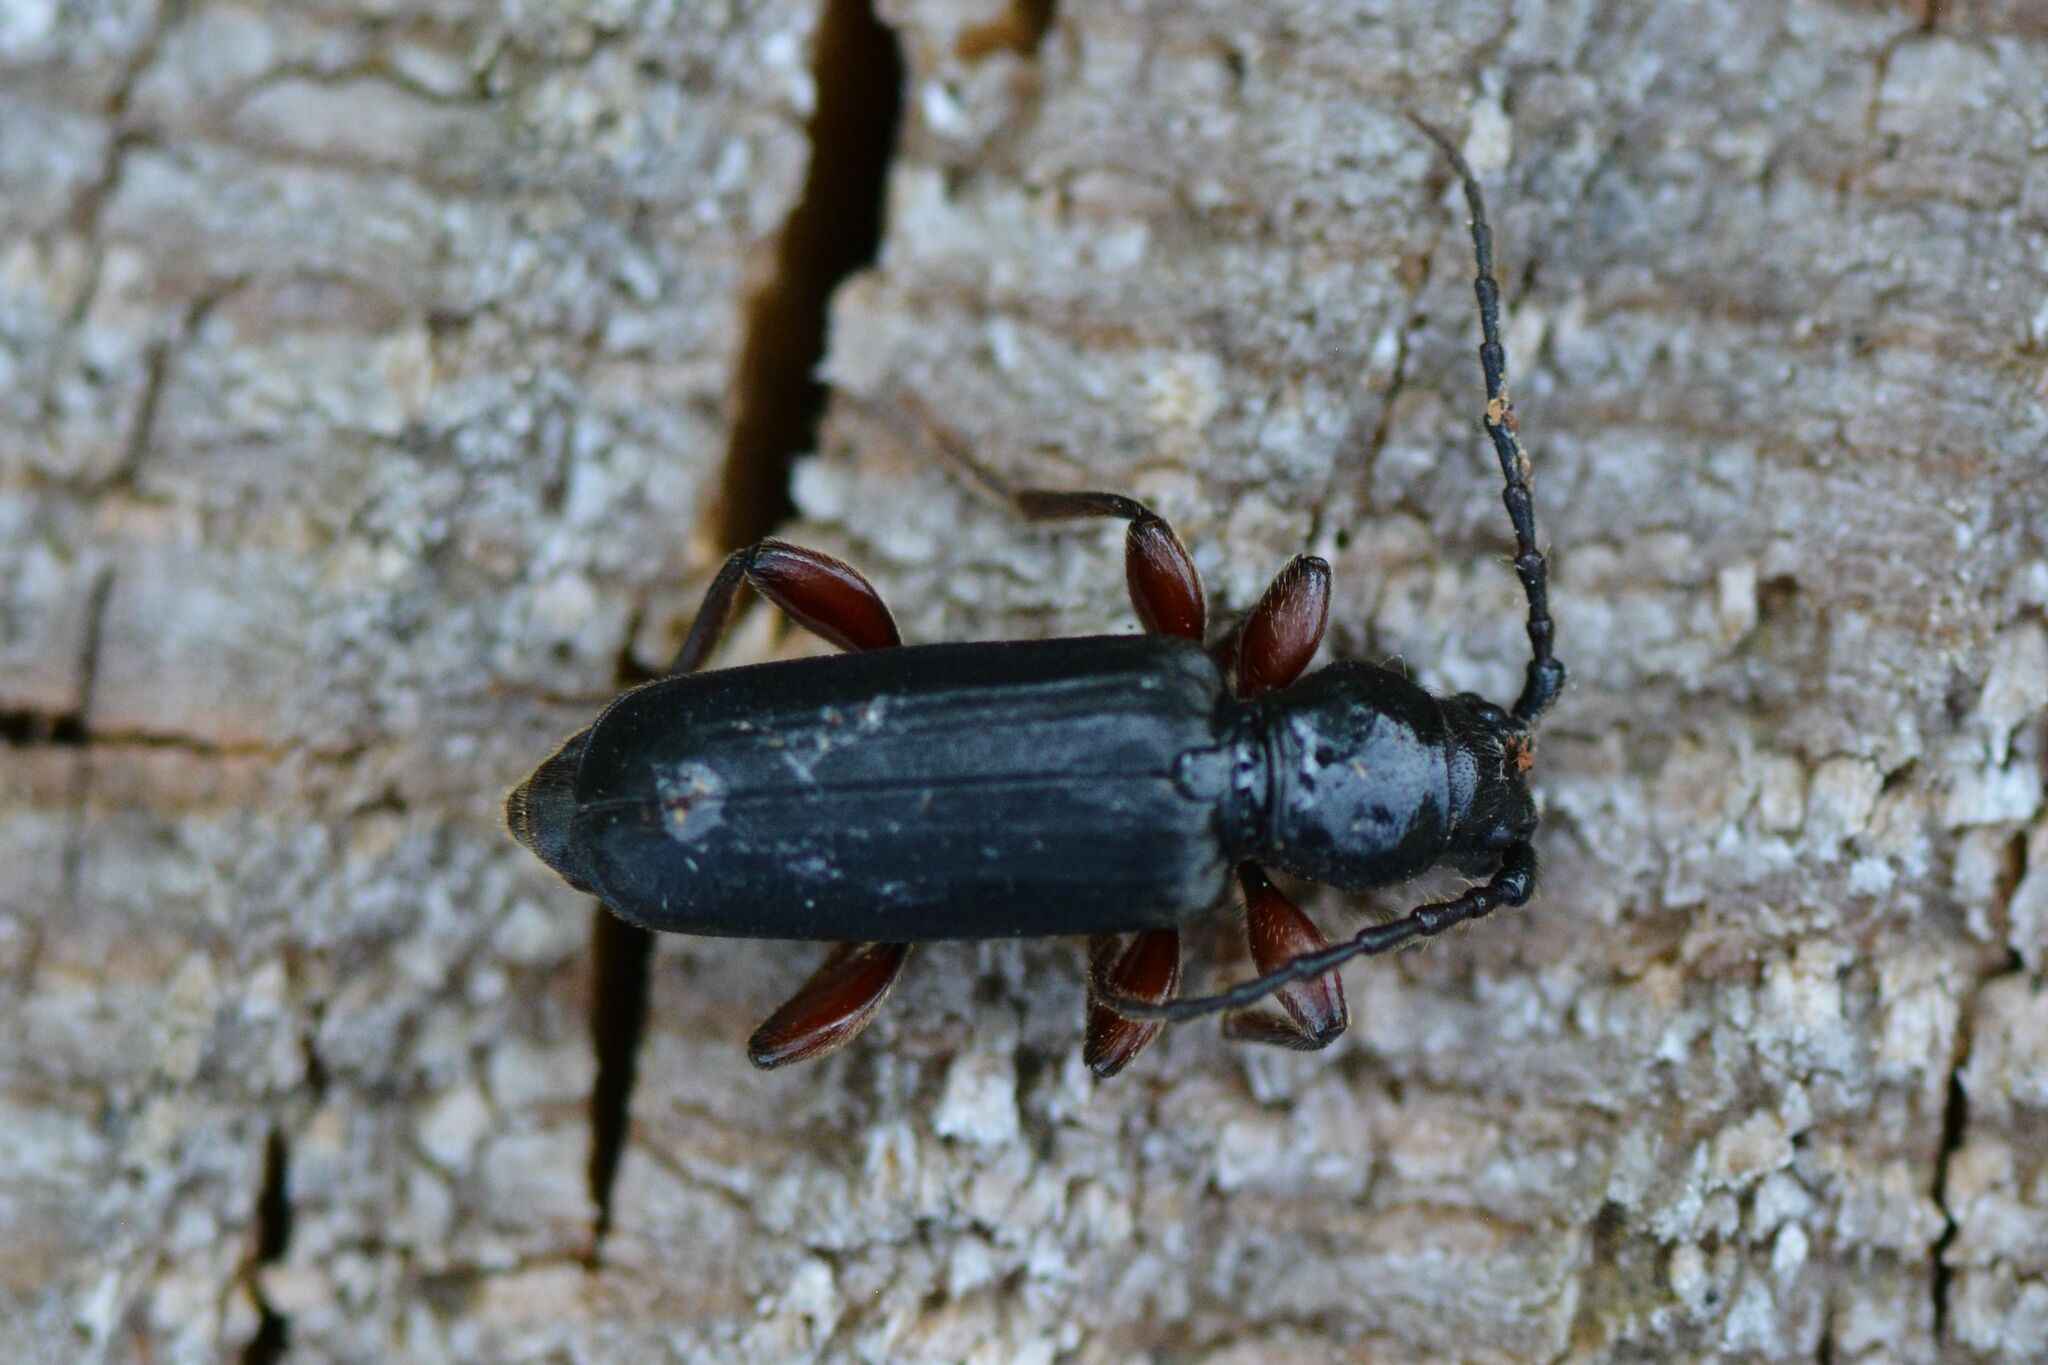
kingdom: Animalia
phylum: Arthropoda
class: Insecta
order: Coleoptera
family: Cerambycidae
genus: Tetropium
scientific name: Tetropium castaneum
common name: Long-horned beetle
